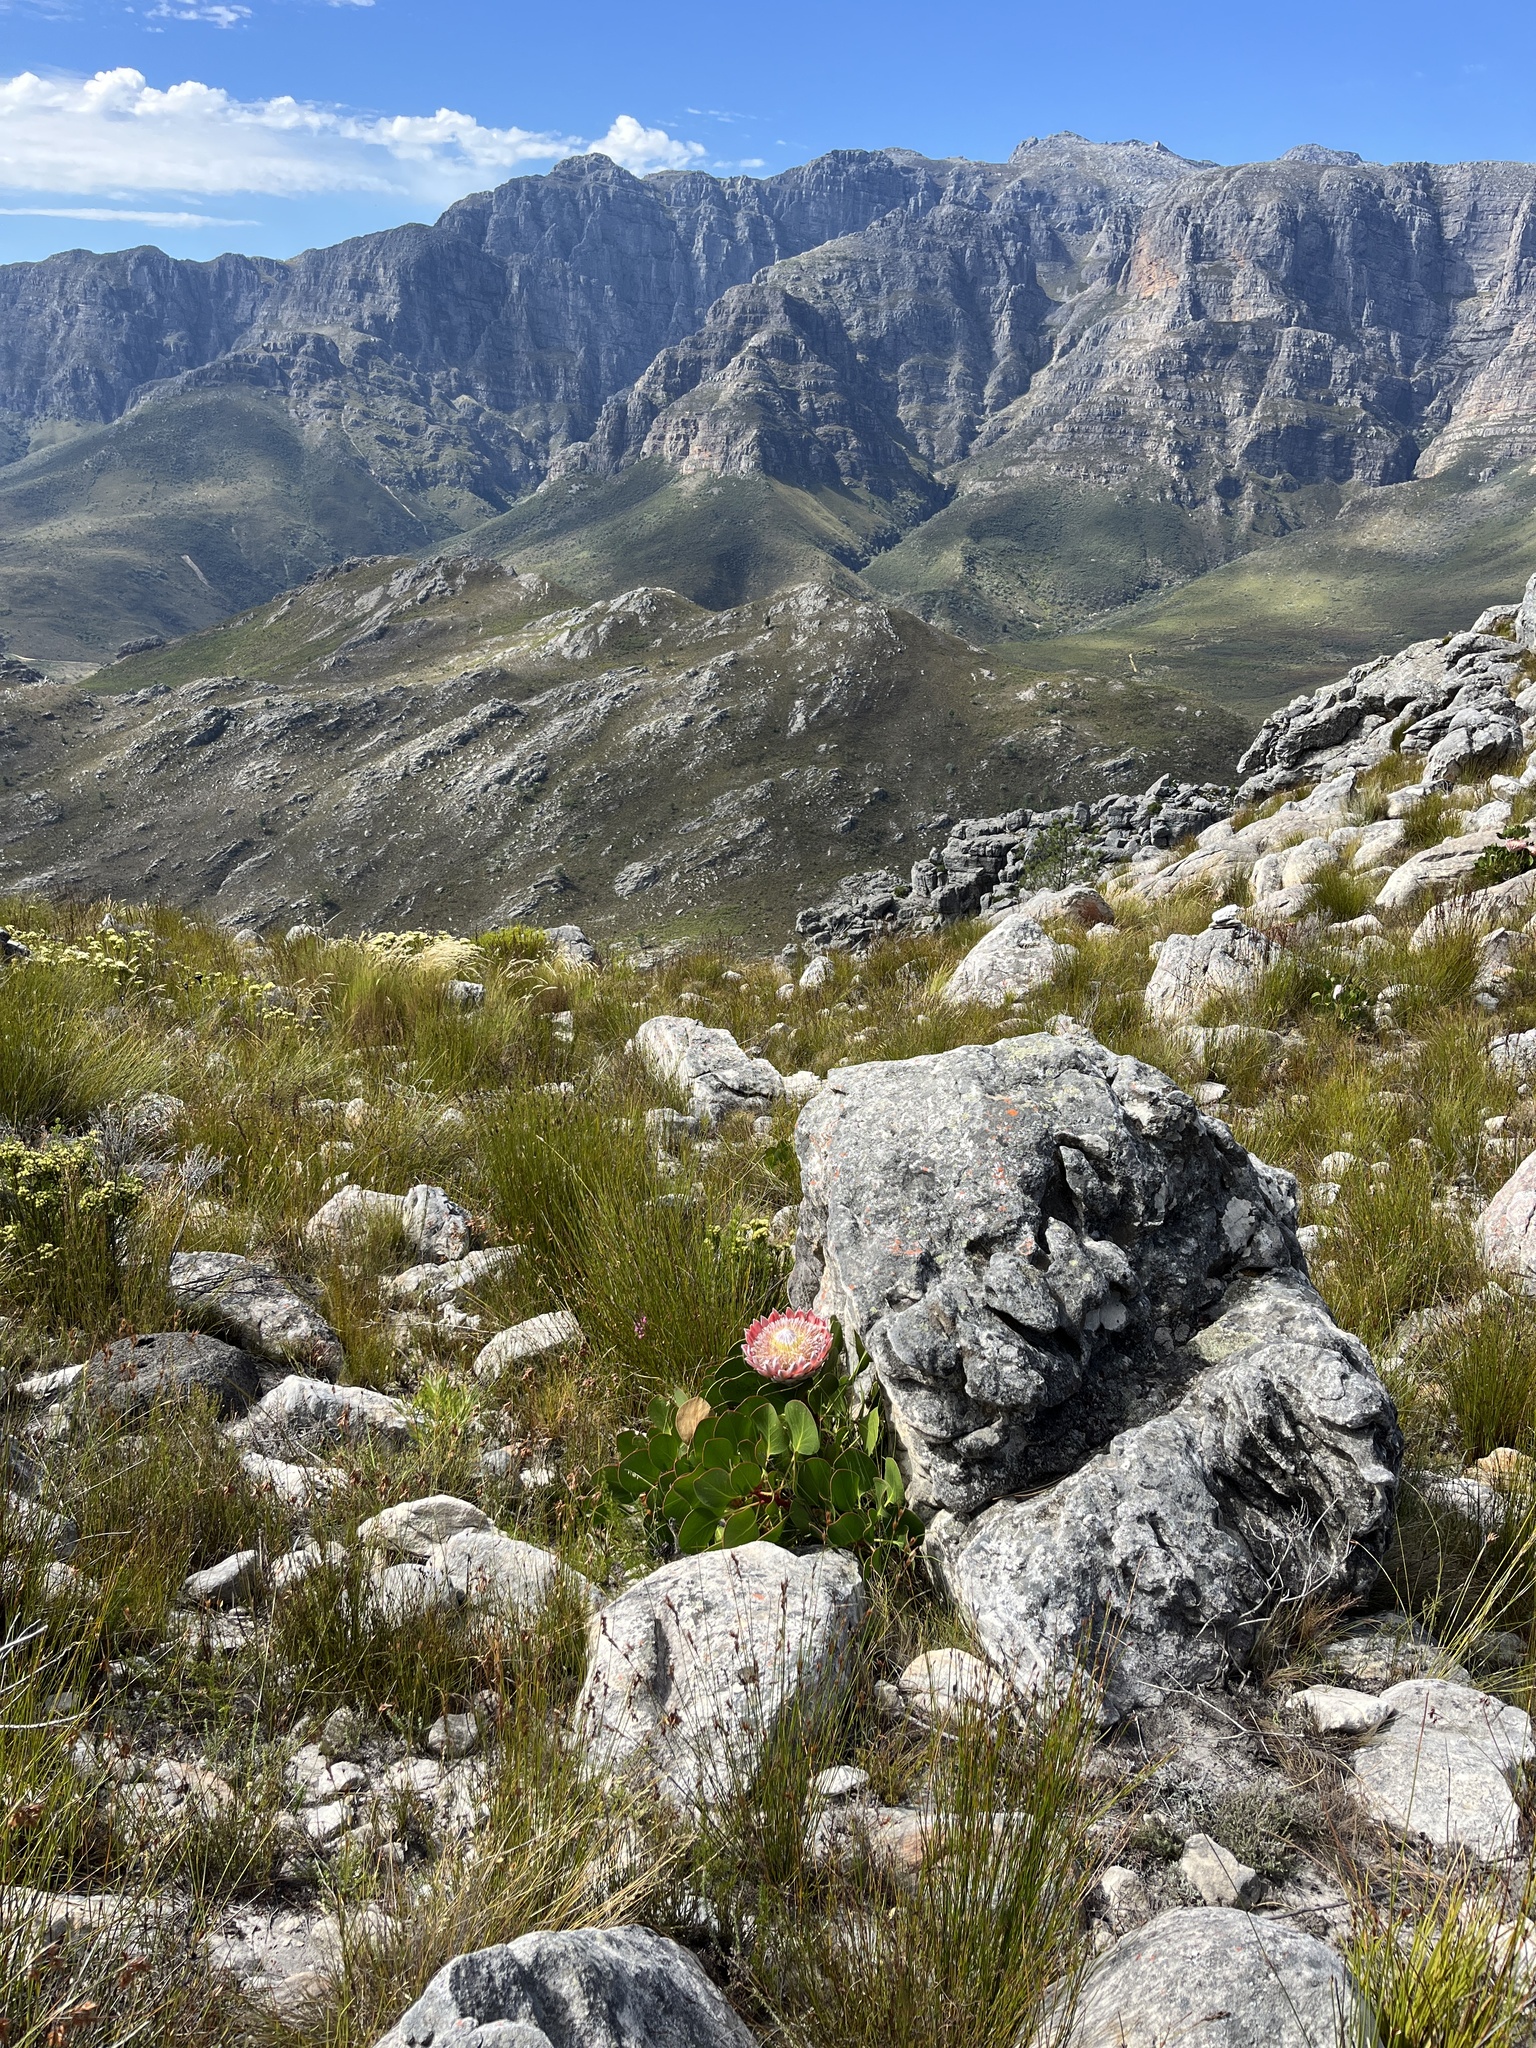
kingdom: Plantae
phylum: Tracheophyta
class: Magnoliopsida
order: Proteales
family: Proteaceae
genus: Protea
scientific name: Protea cynaroides
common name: King protea
